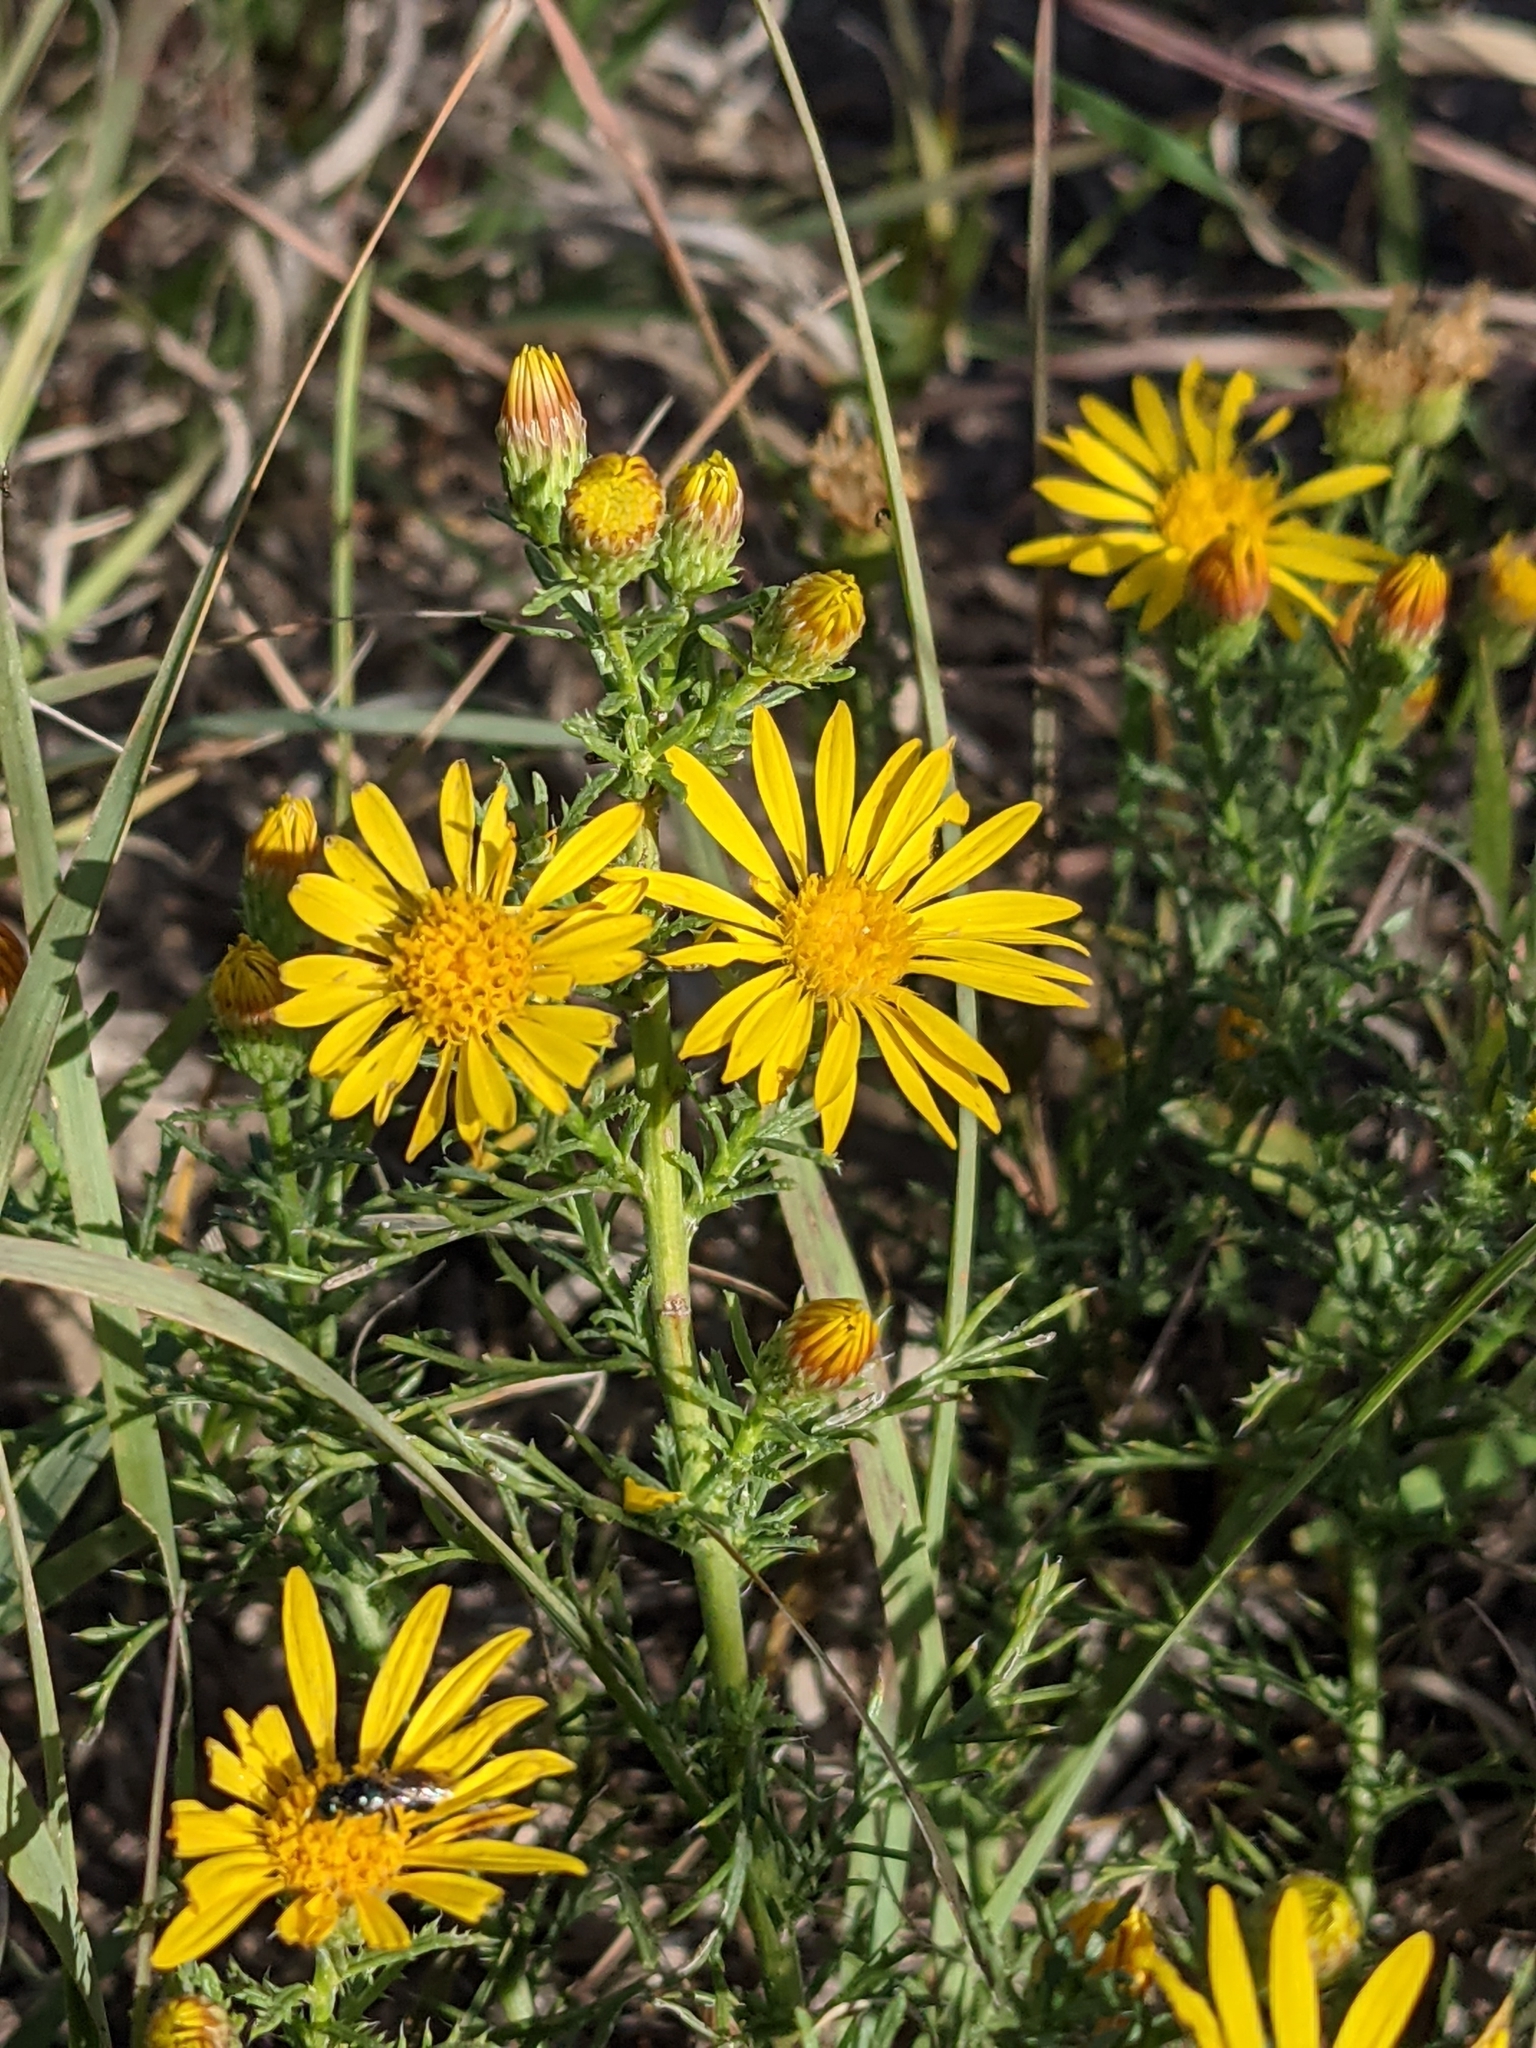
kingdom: Plantae
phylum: Tracheophyta
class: Magnoliopsida
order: Asterales
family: Asteraceae
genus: Grindelia
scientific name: Grindelia squarrosa
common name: Curly-cup gumweed
